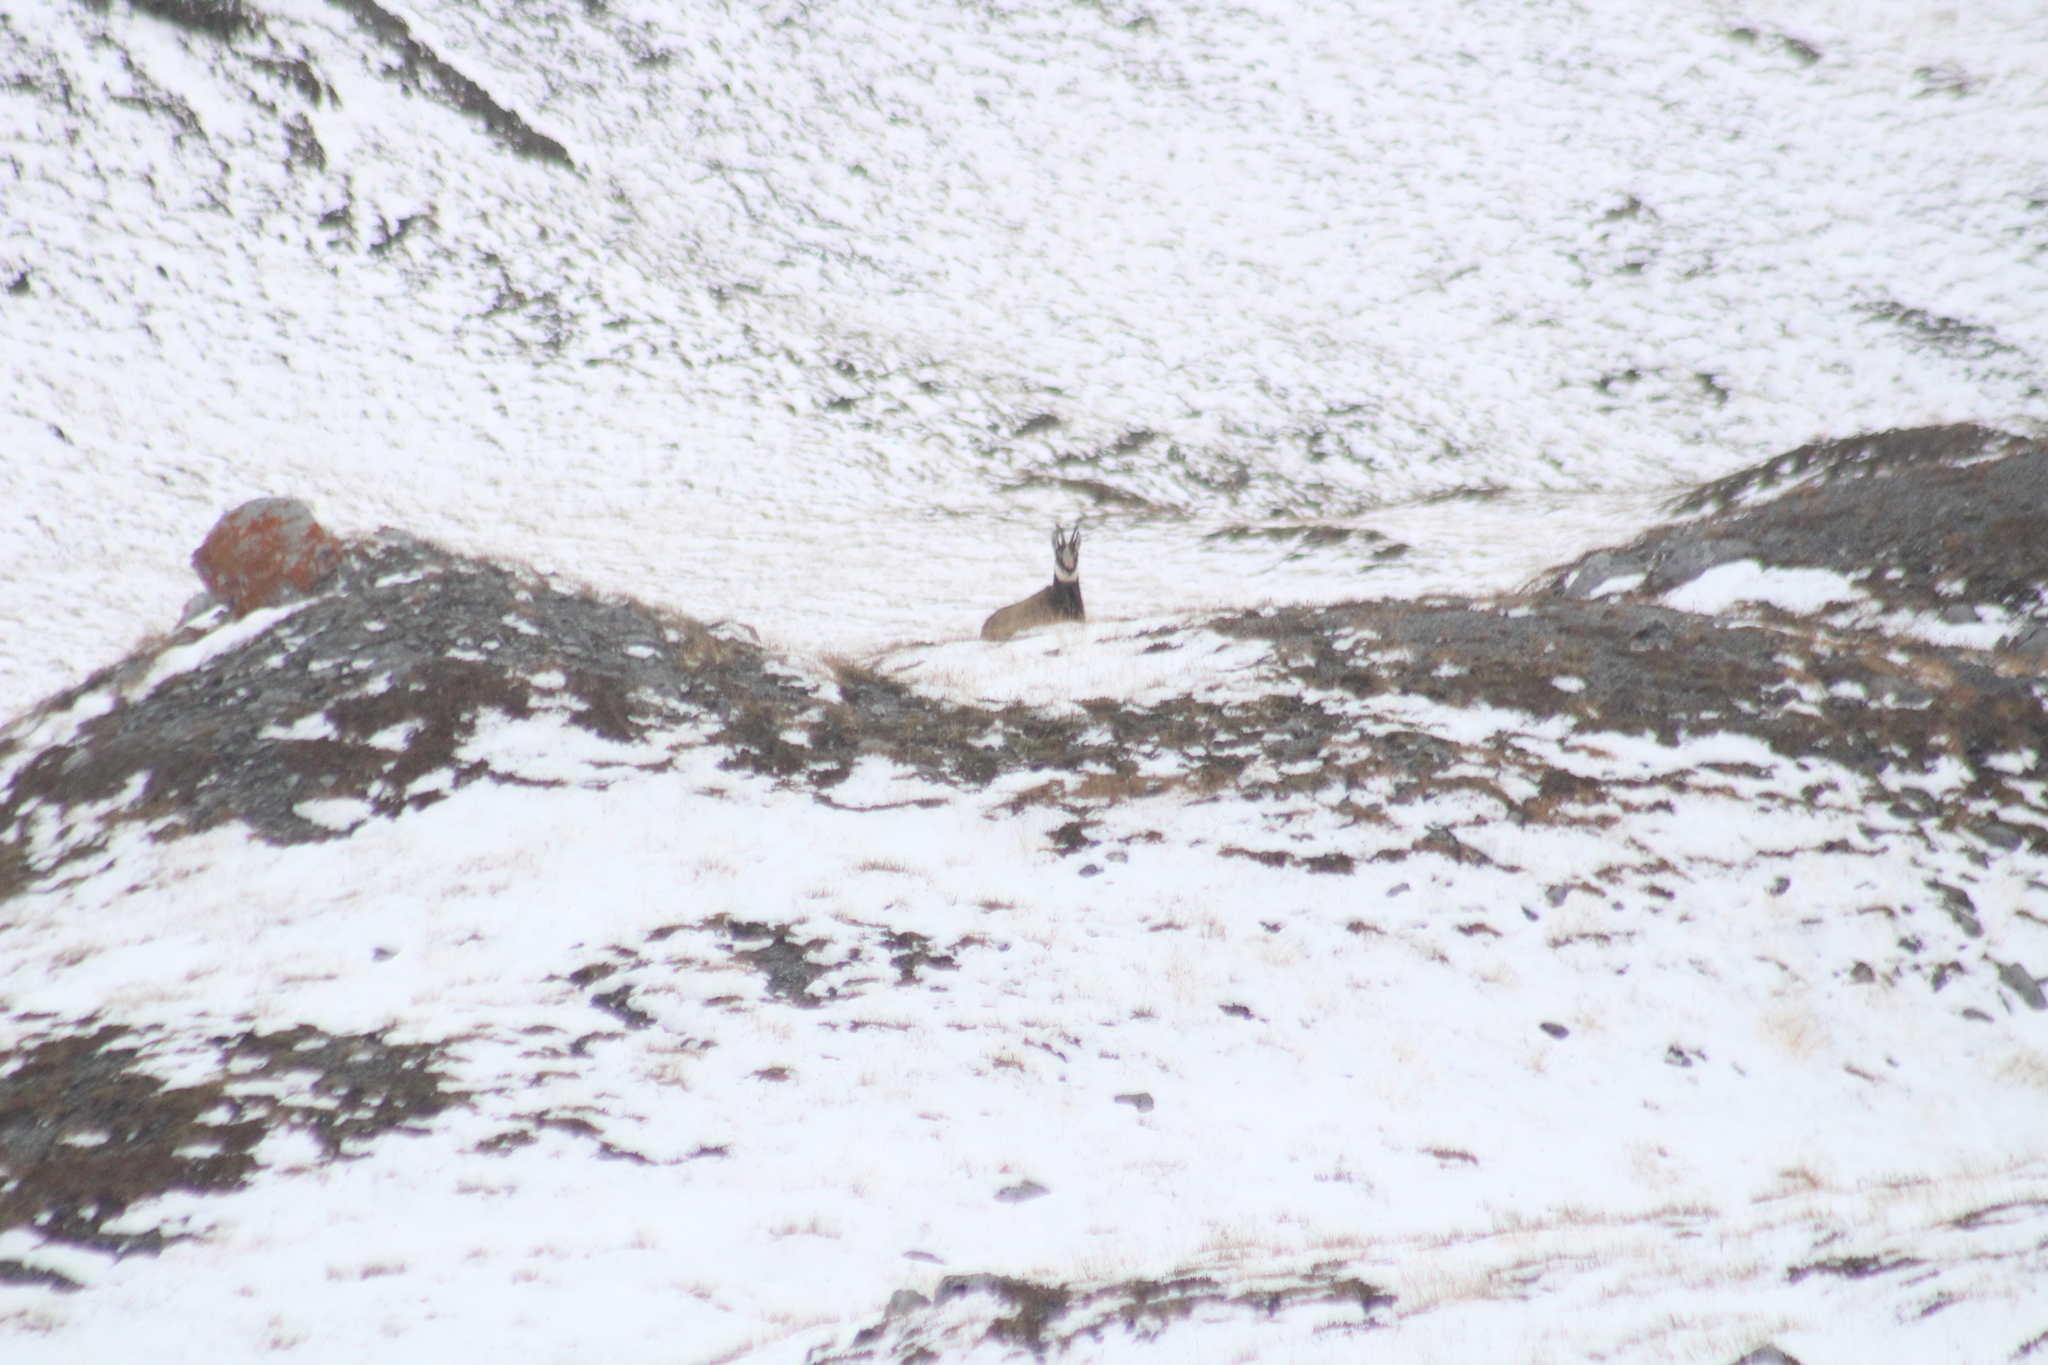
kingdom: Animalia
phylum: Chordata
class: Mammalia
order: Artiodactyla
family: Bovidae
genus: Rupicapra
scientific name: Rupicapra rupicapra
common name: Chamois
